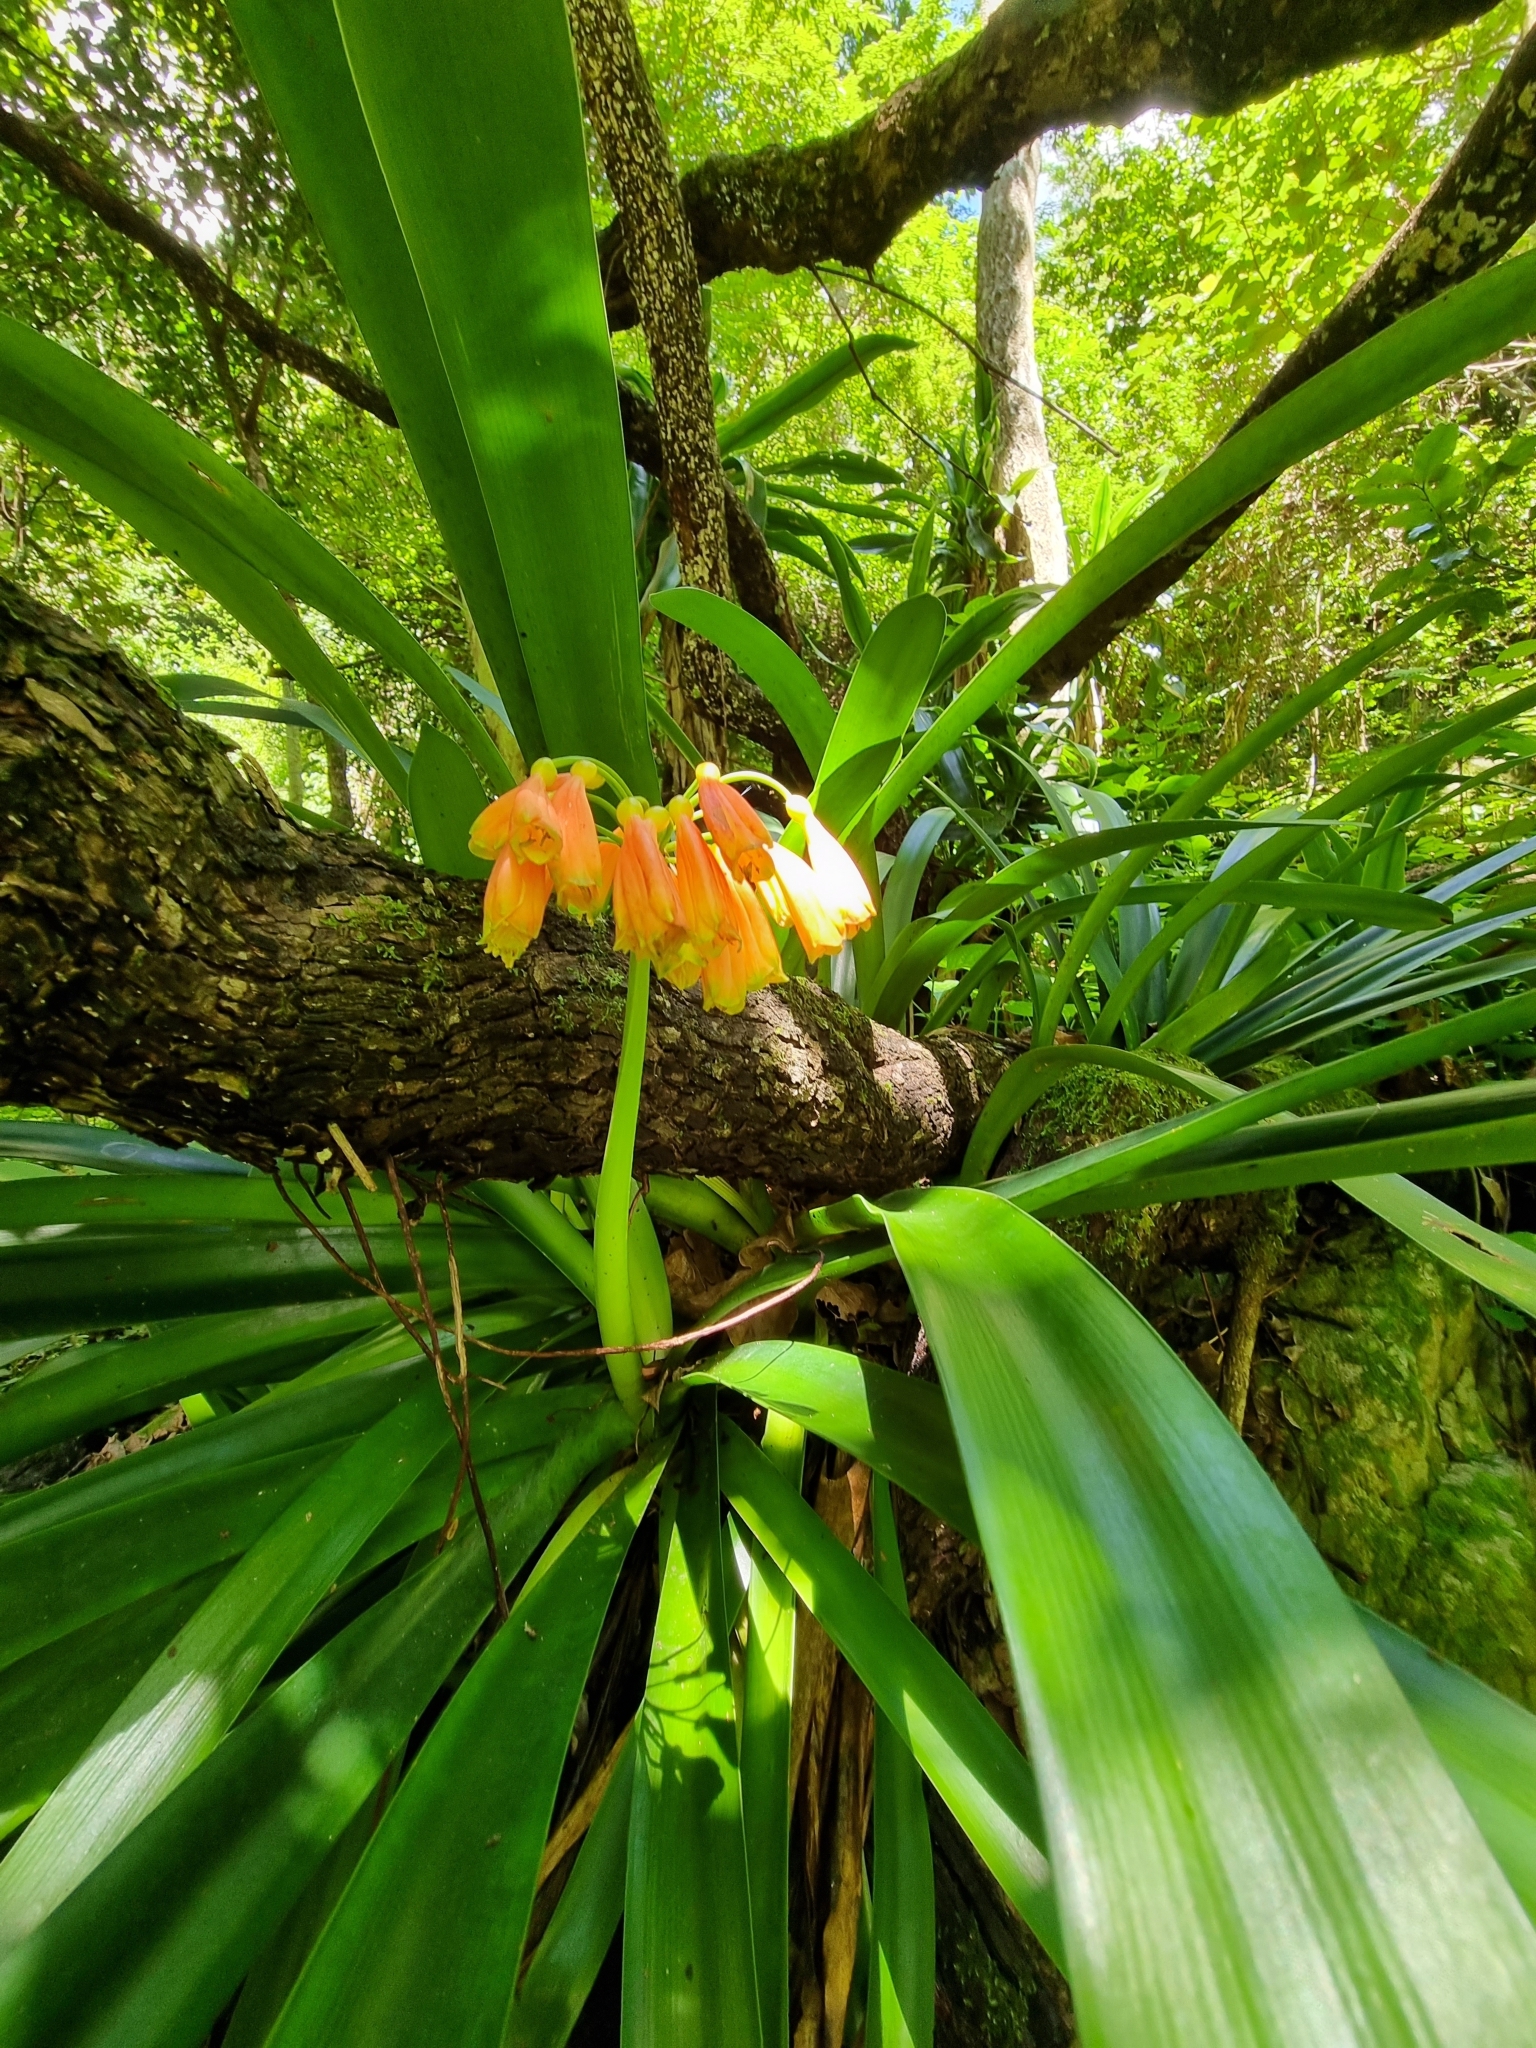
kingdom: Plantae
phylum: Tracheophyta
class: Liliopsida
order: Asparagales
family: Amaryllidaceae
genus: Clivia
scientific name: Clivia caulescens
